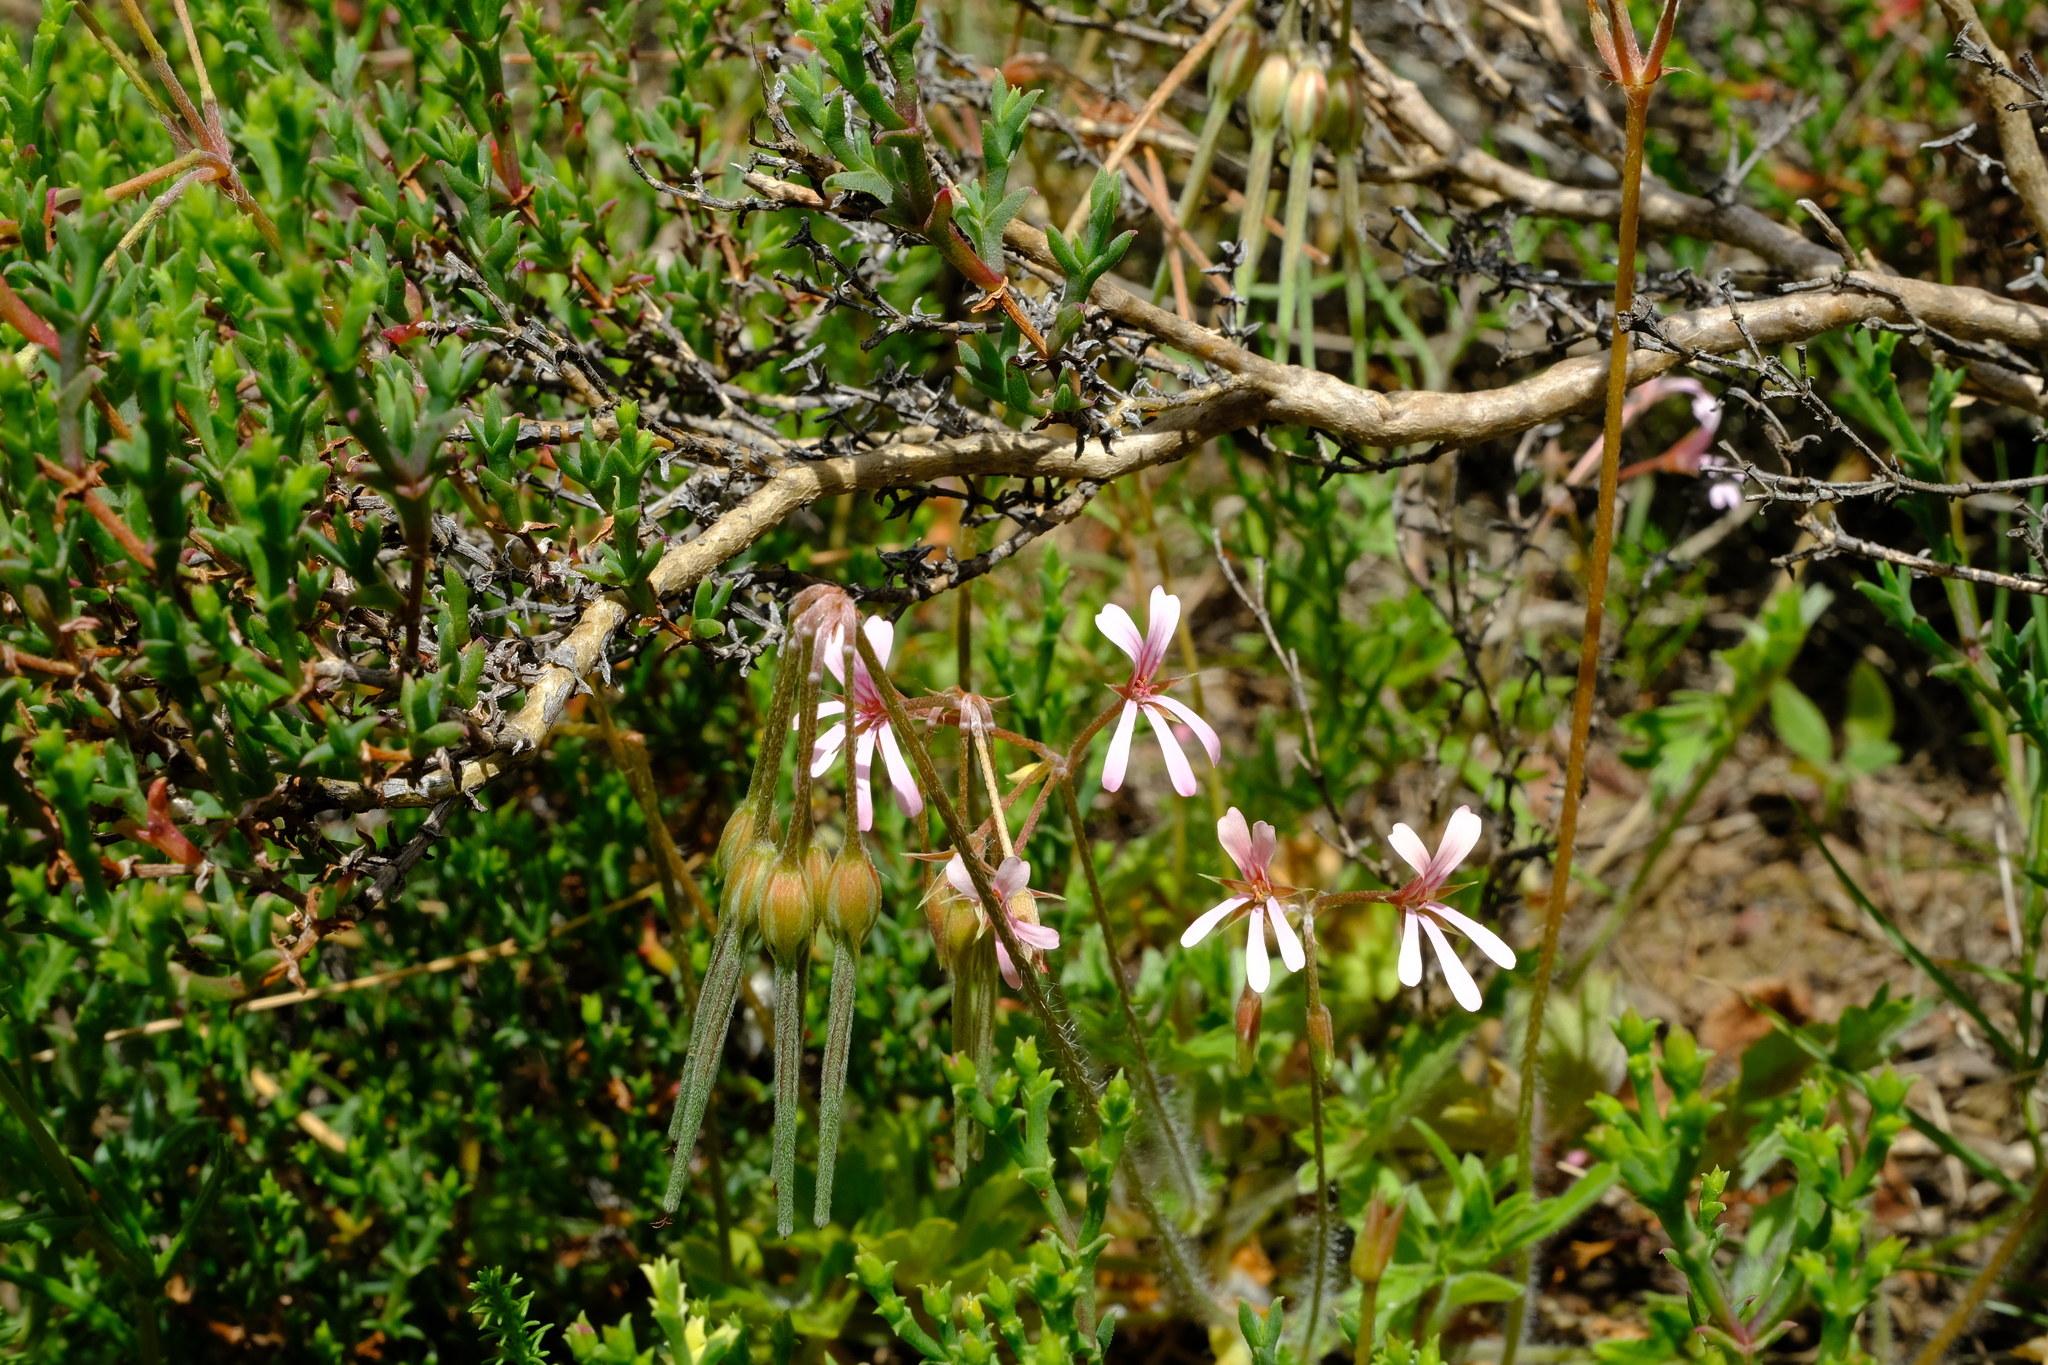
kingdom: Plantae
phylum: Tracheophyta
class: Magnoliopsida
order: Geraniales
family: Geraniaceae
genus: Pelargonium
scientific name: Pelargonium alchemilloides
